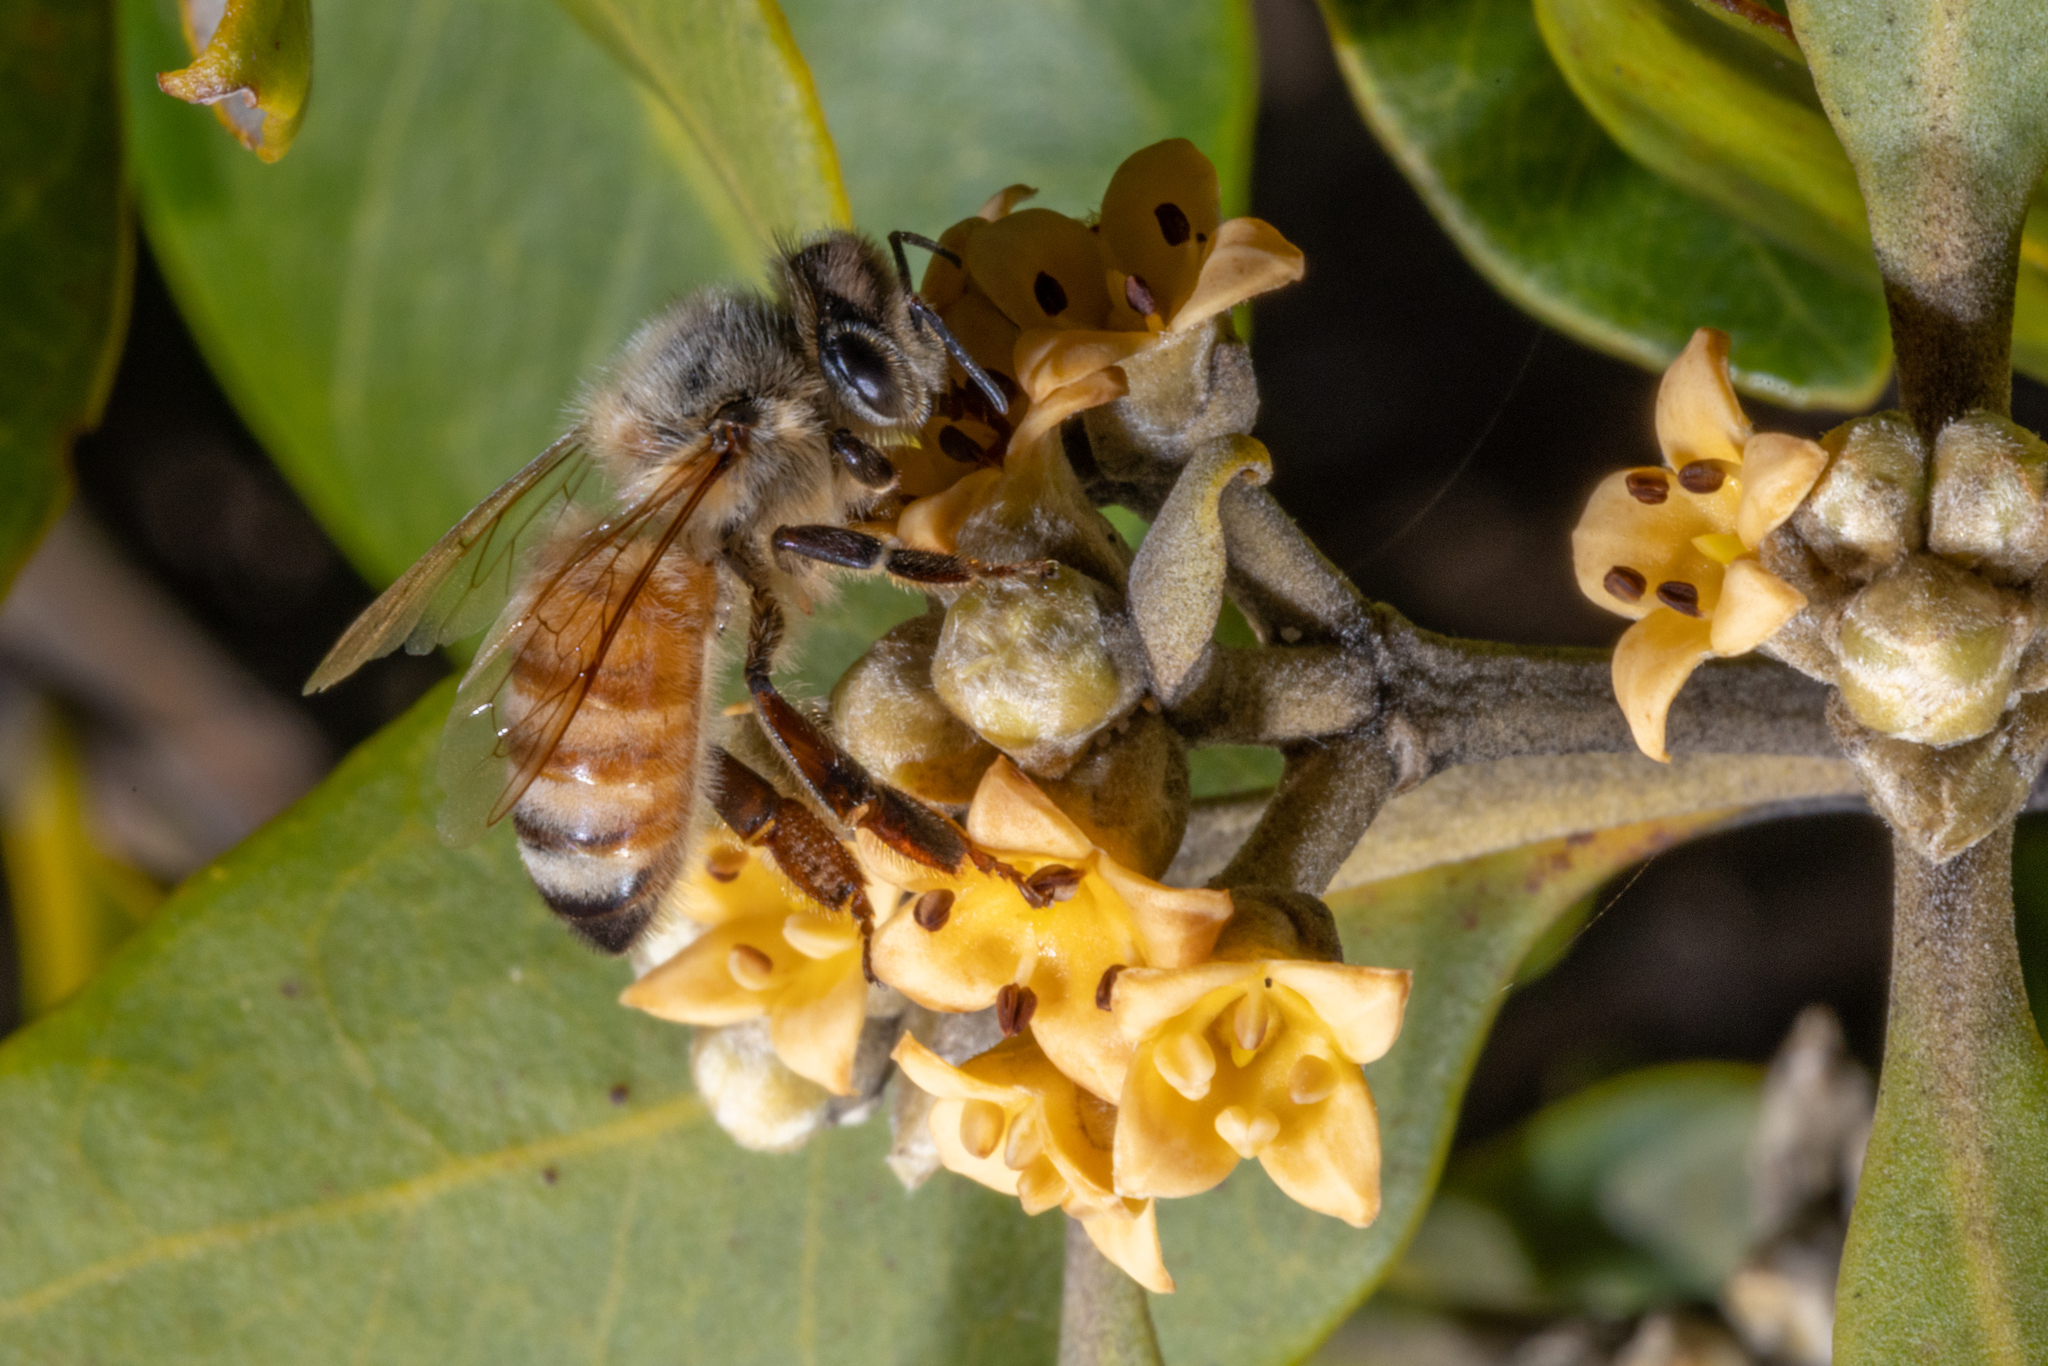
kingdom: Animalia
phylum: Arthropoda
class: Insecta
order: Hymenoptera
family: Apidae
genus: Apis
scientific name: Apis mellifera
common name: Honey bee
